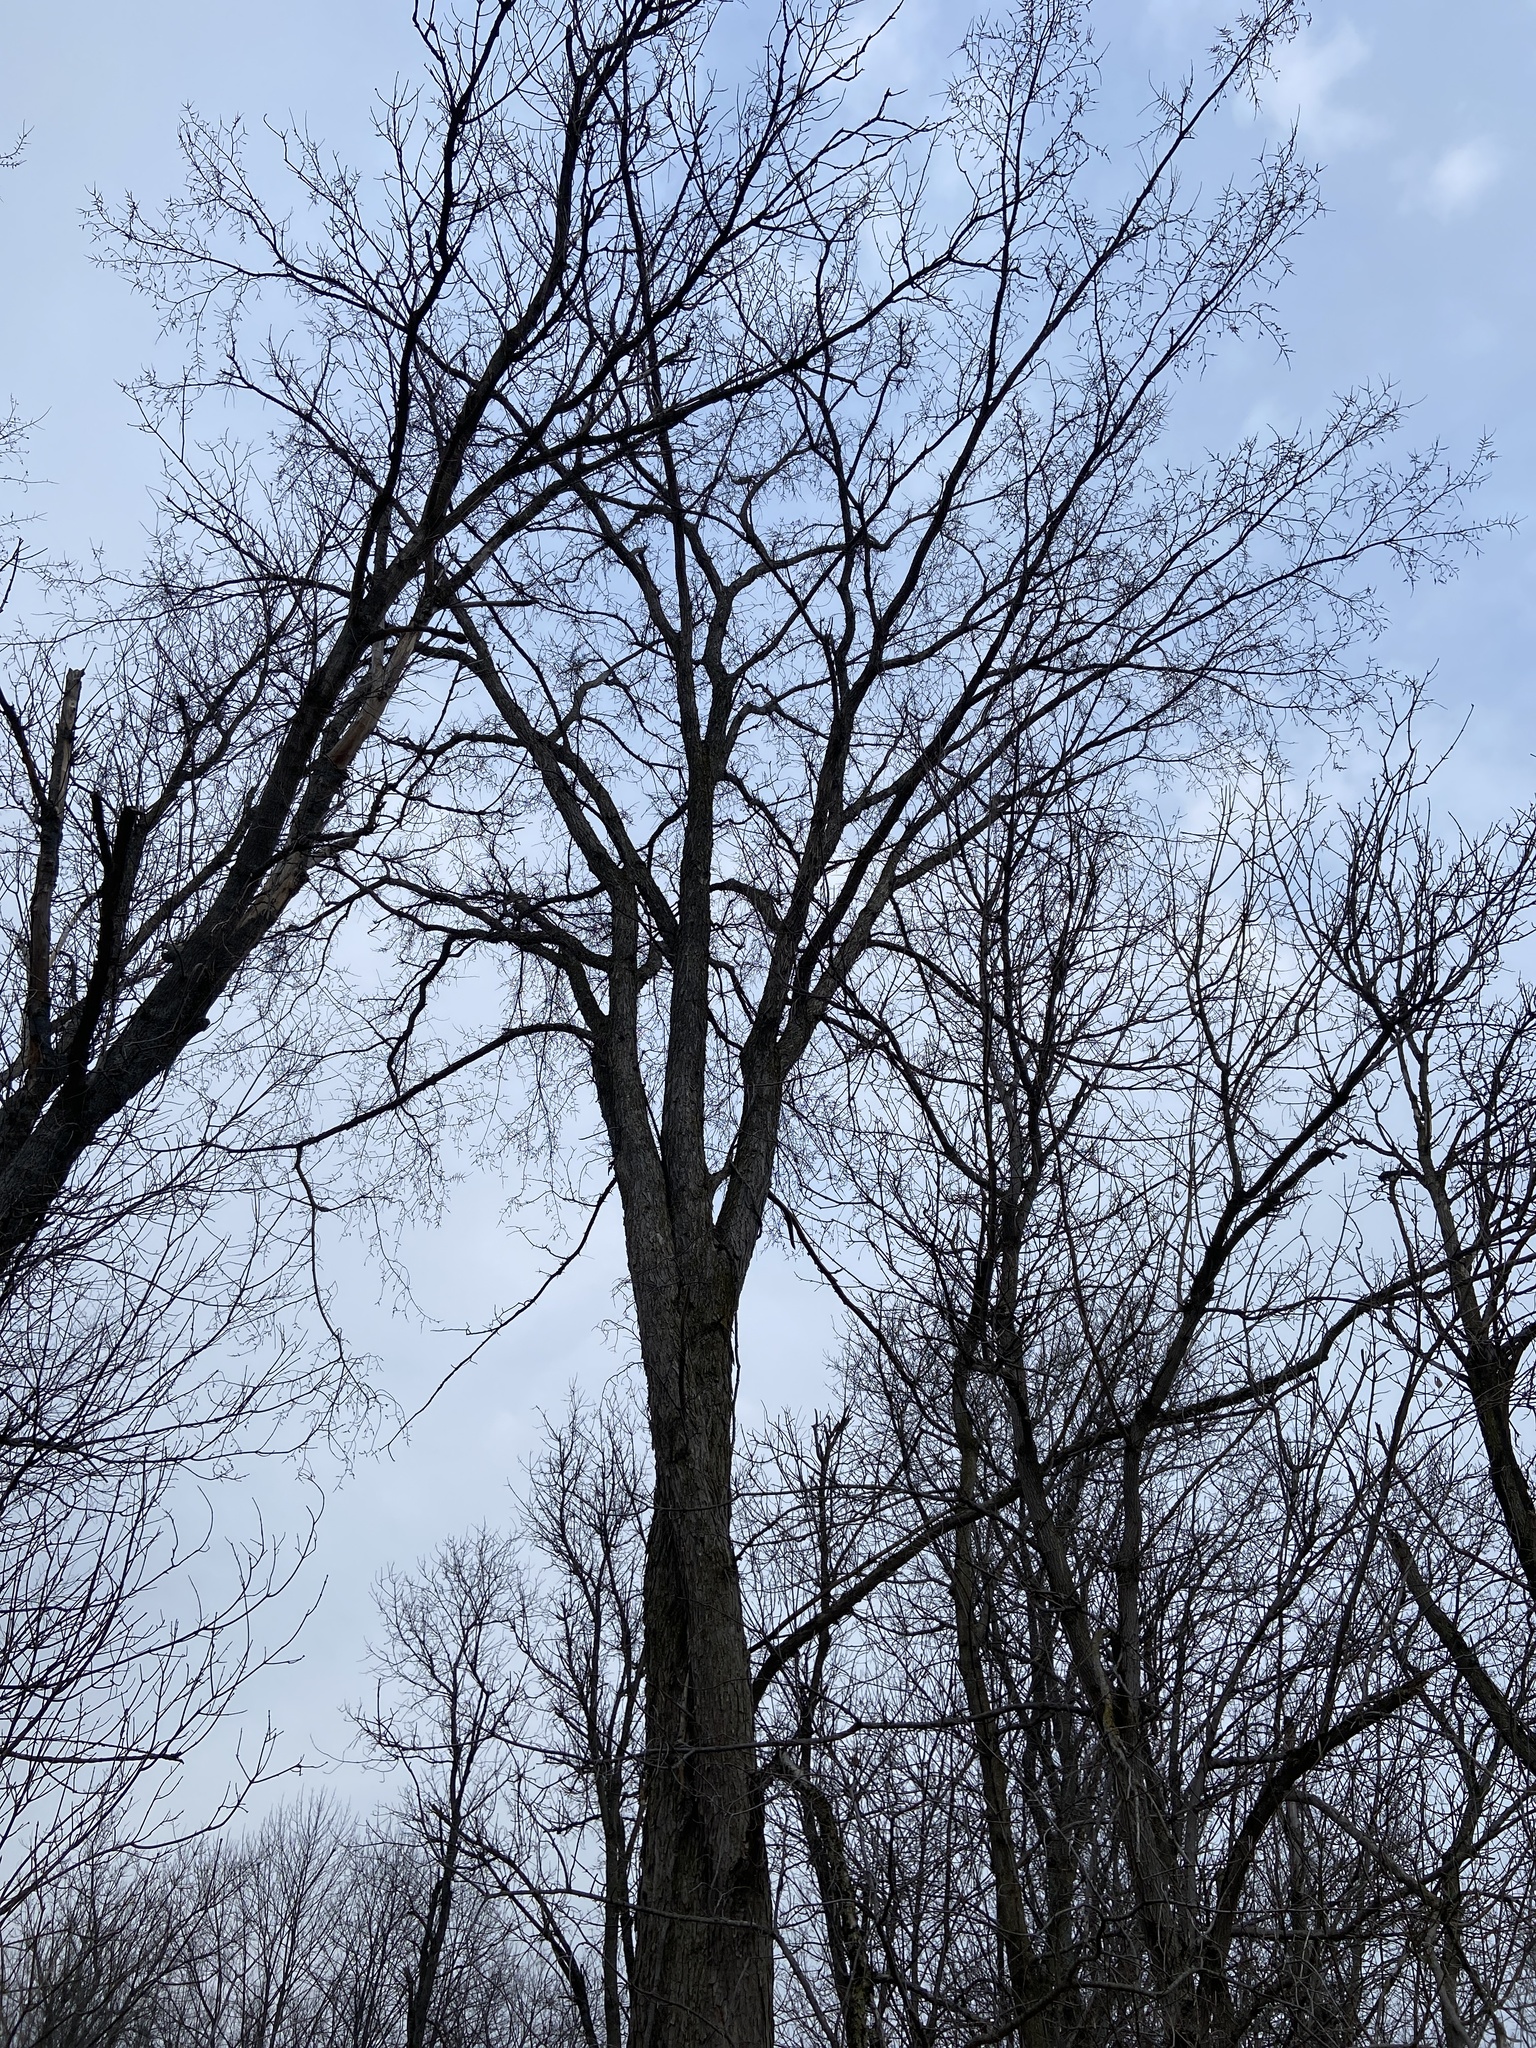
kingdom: Plantae
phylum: Tracheophyta
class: Magnoliopsida
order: Rosales
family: Ulmaceae
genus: Ulmus
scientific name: Ulmus americana
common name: American elm
